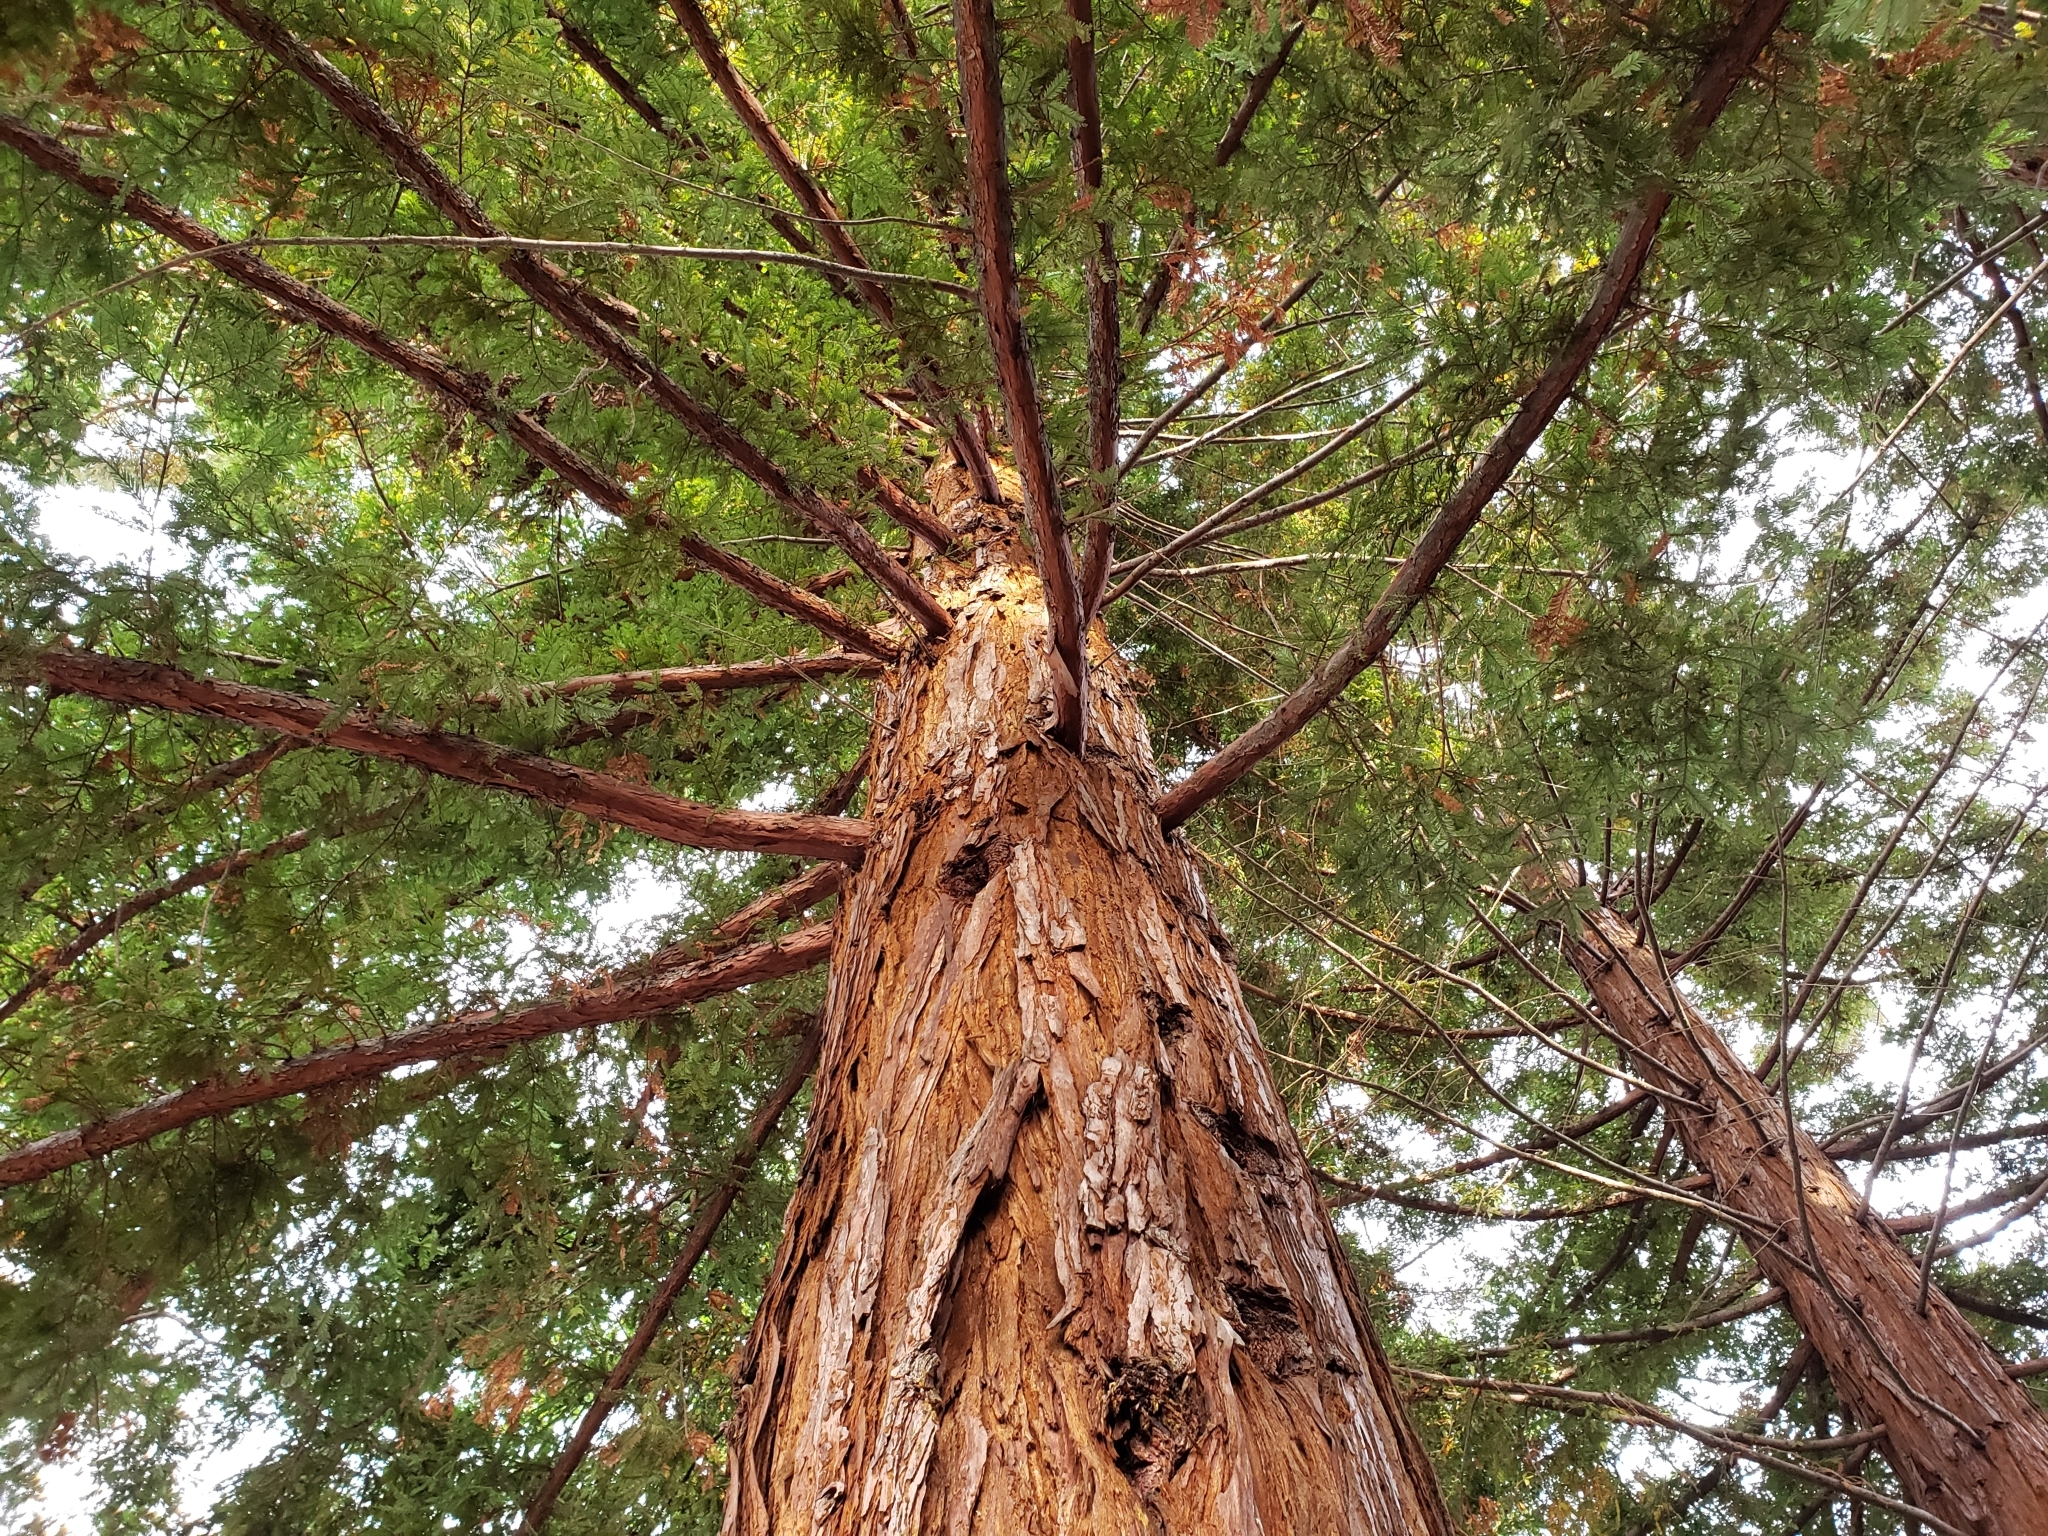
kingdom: Plantae
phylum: Tracheophyta
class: Pinopsida
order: Pinales
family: Cupressaceae
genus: Sequoia
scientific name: Sequoia sempervirens
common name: Coast redwood
